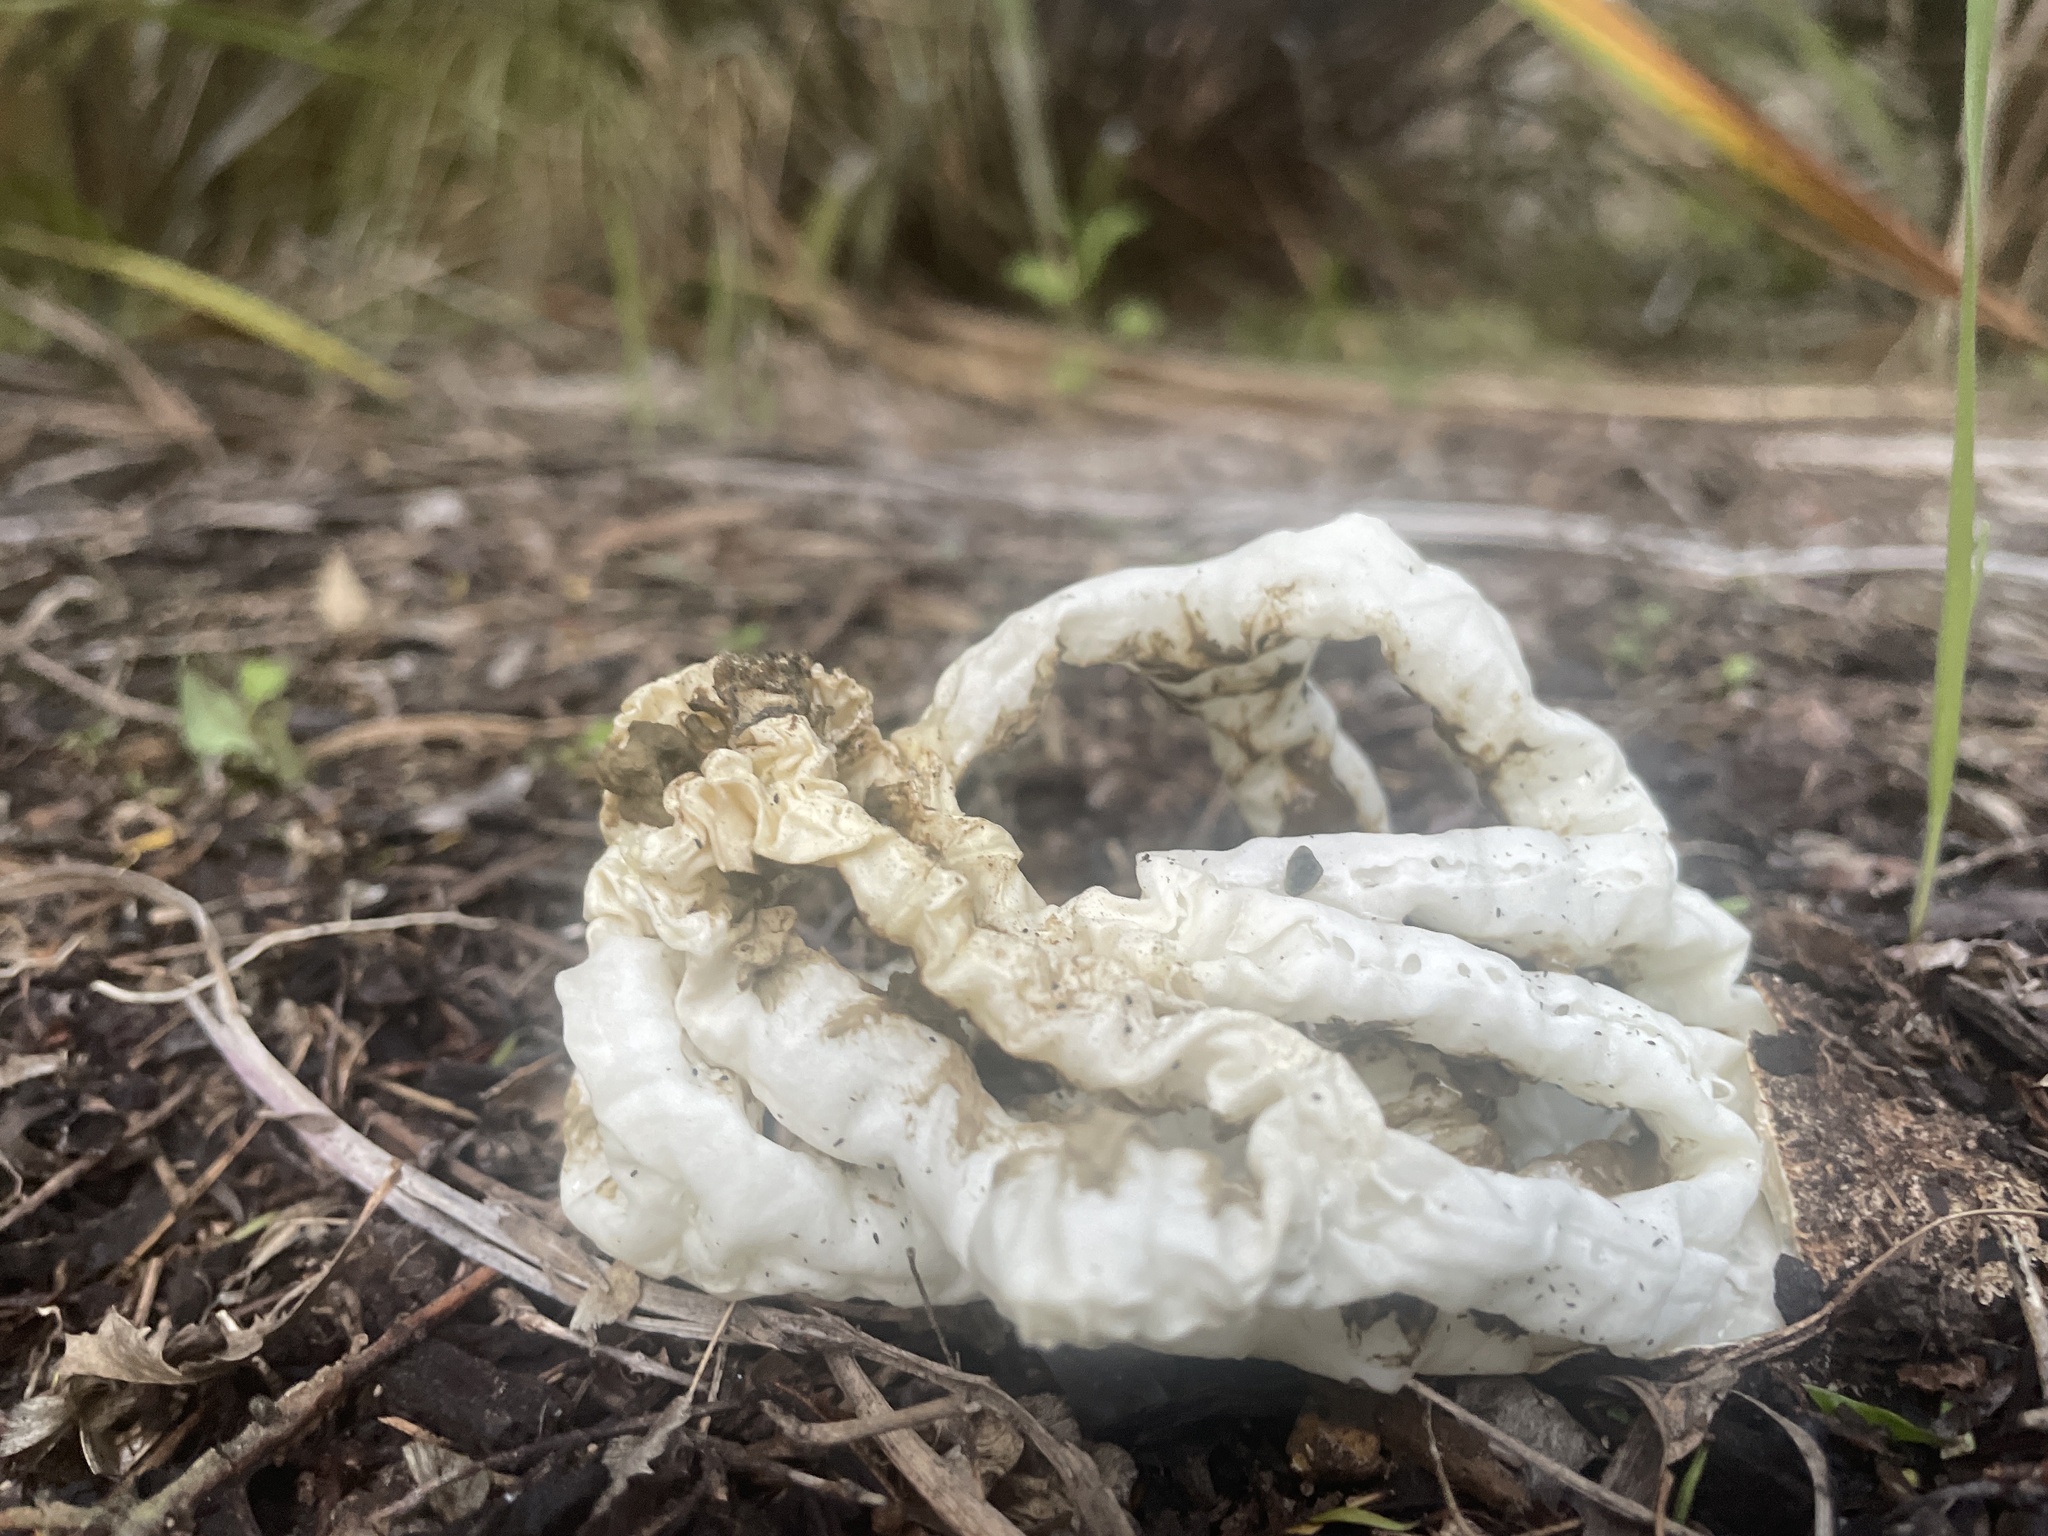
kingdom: Fungi
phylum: Basidiomycota
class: Agaricomycetes
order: Phallales
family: Phallaceae
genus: Ileodictyon
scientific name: Ileodictyon cibarium
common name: Basket fungus
